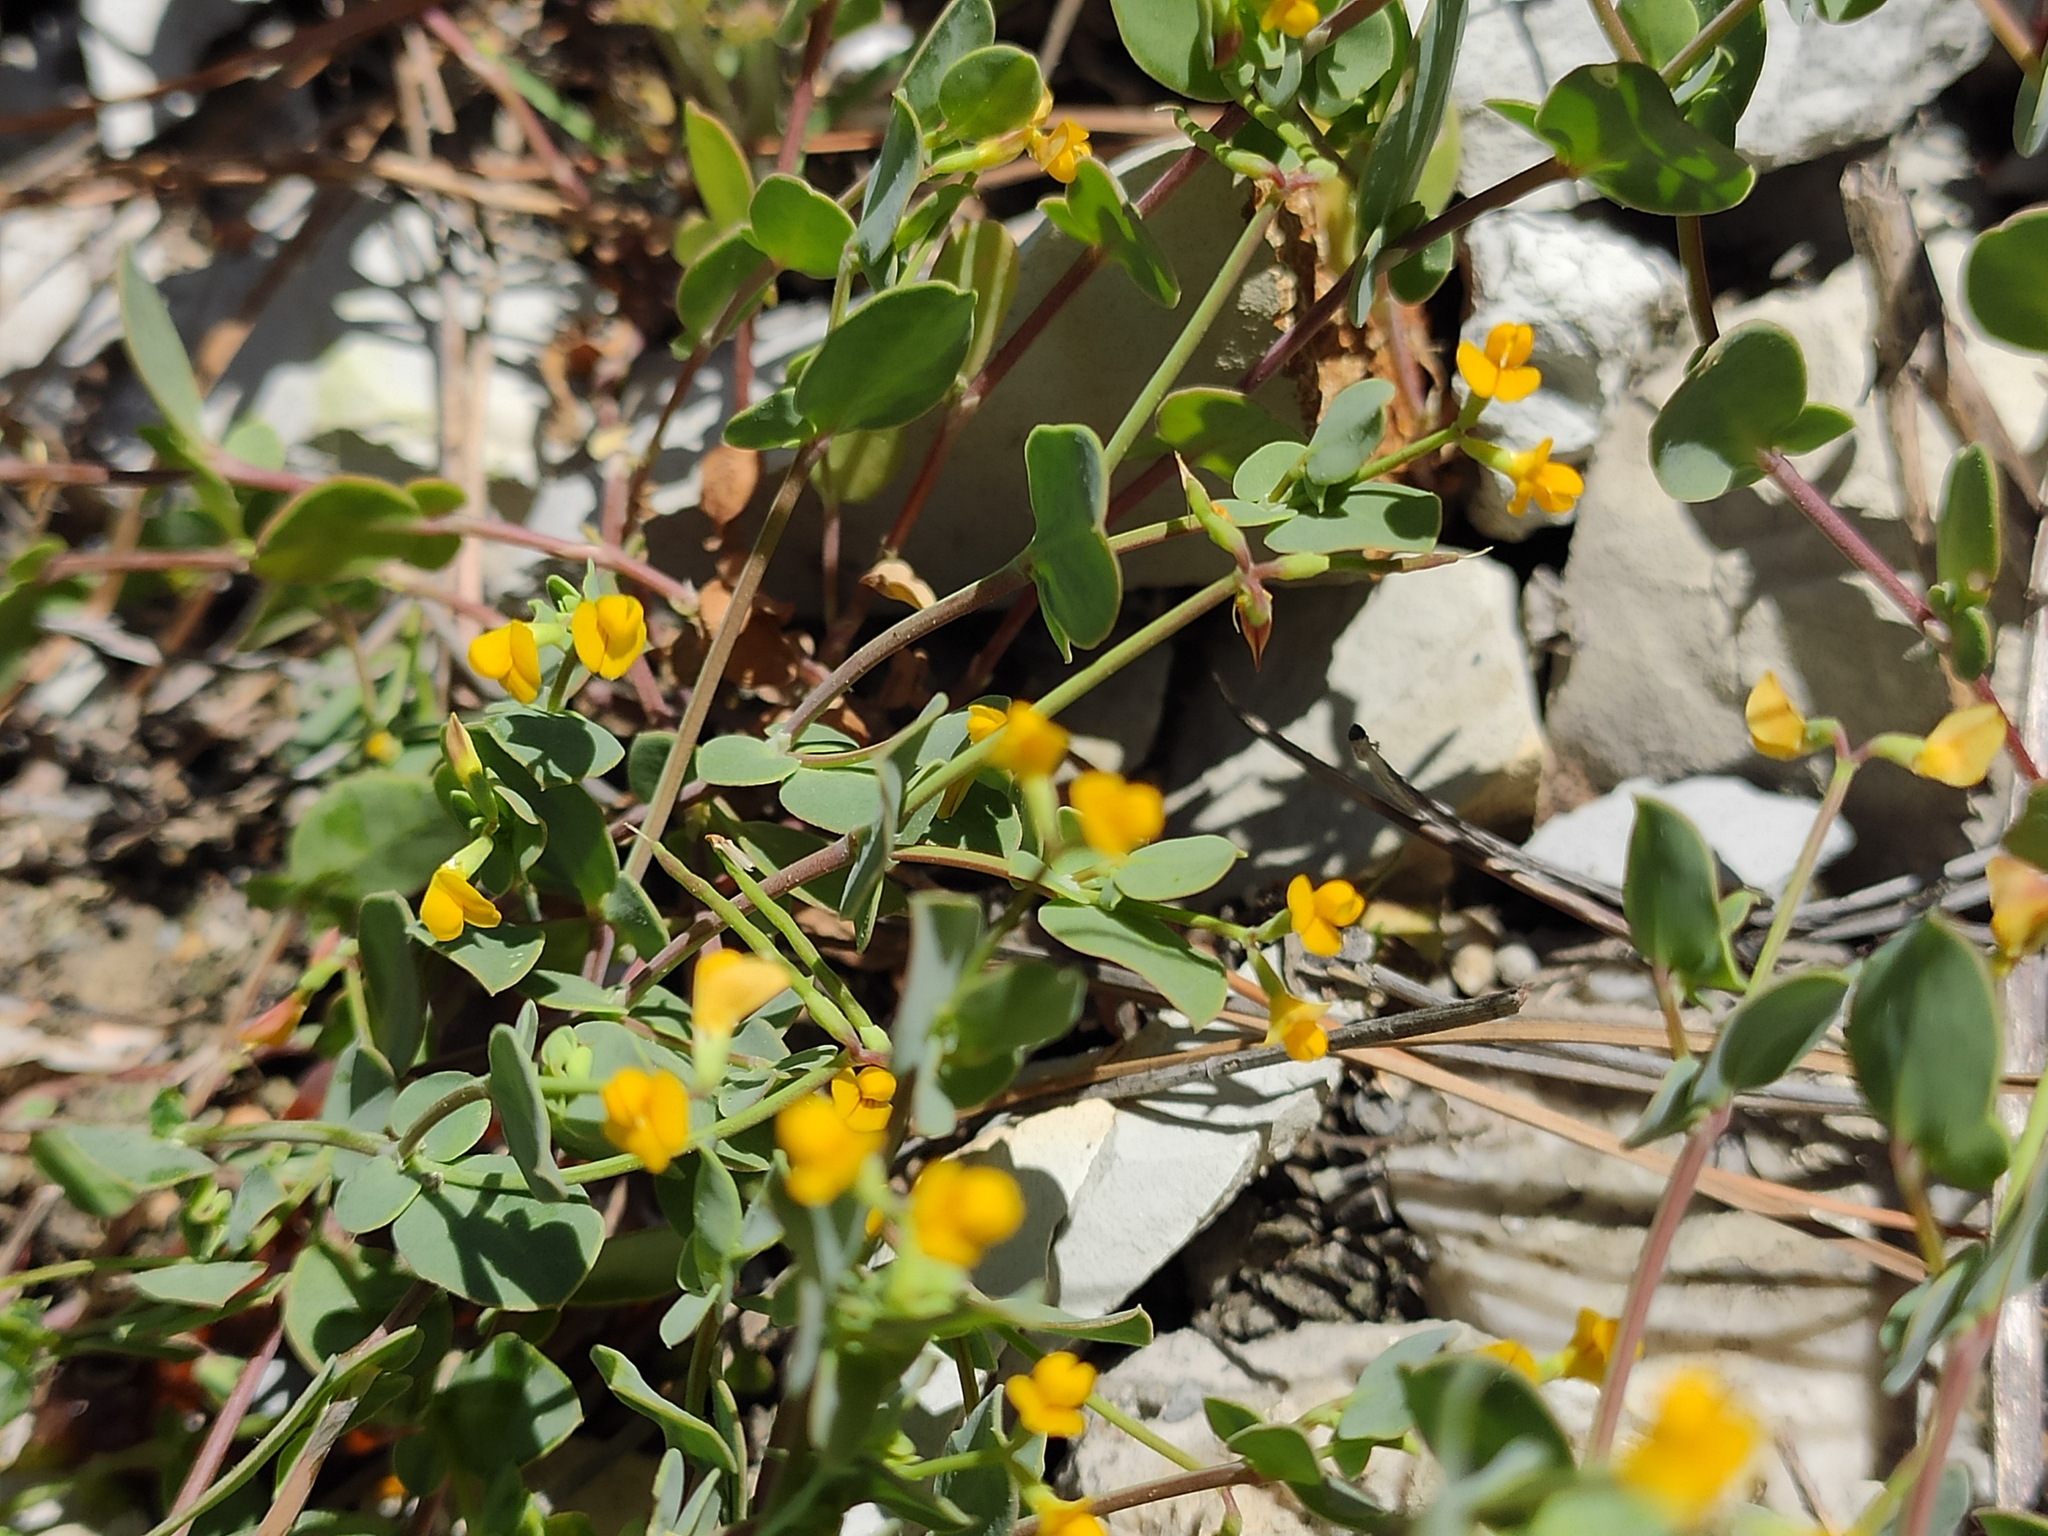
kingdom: Plantae
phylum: Tracheophyta
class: Magnoliopsida
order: Fabales
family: Fabaceae
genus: Coronilla
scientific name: Coronilla scorpioides
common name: Annual scorpion-vetch
